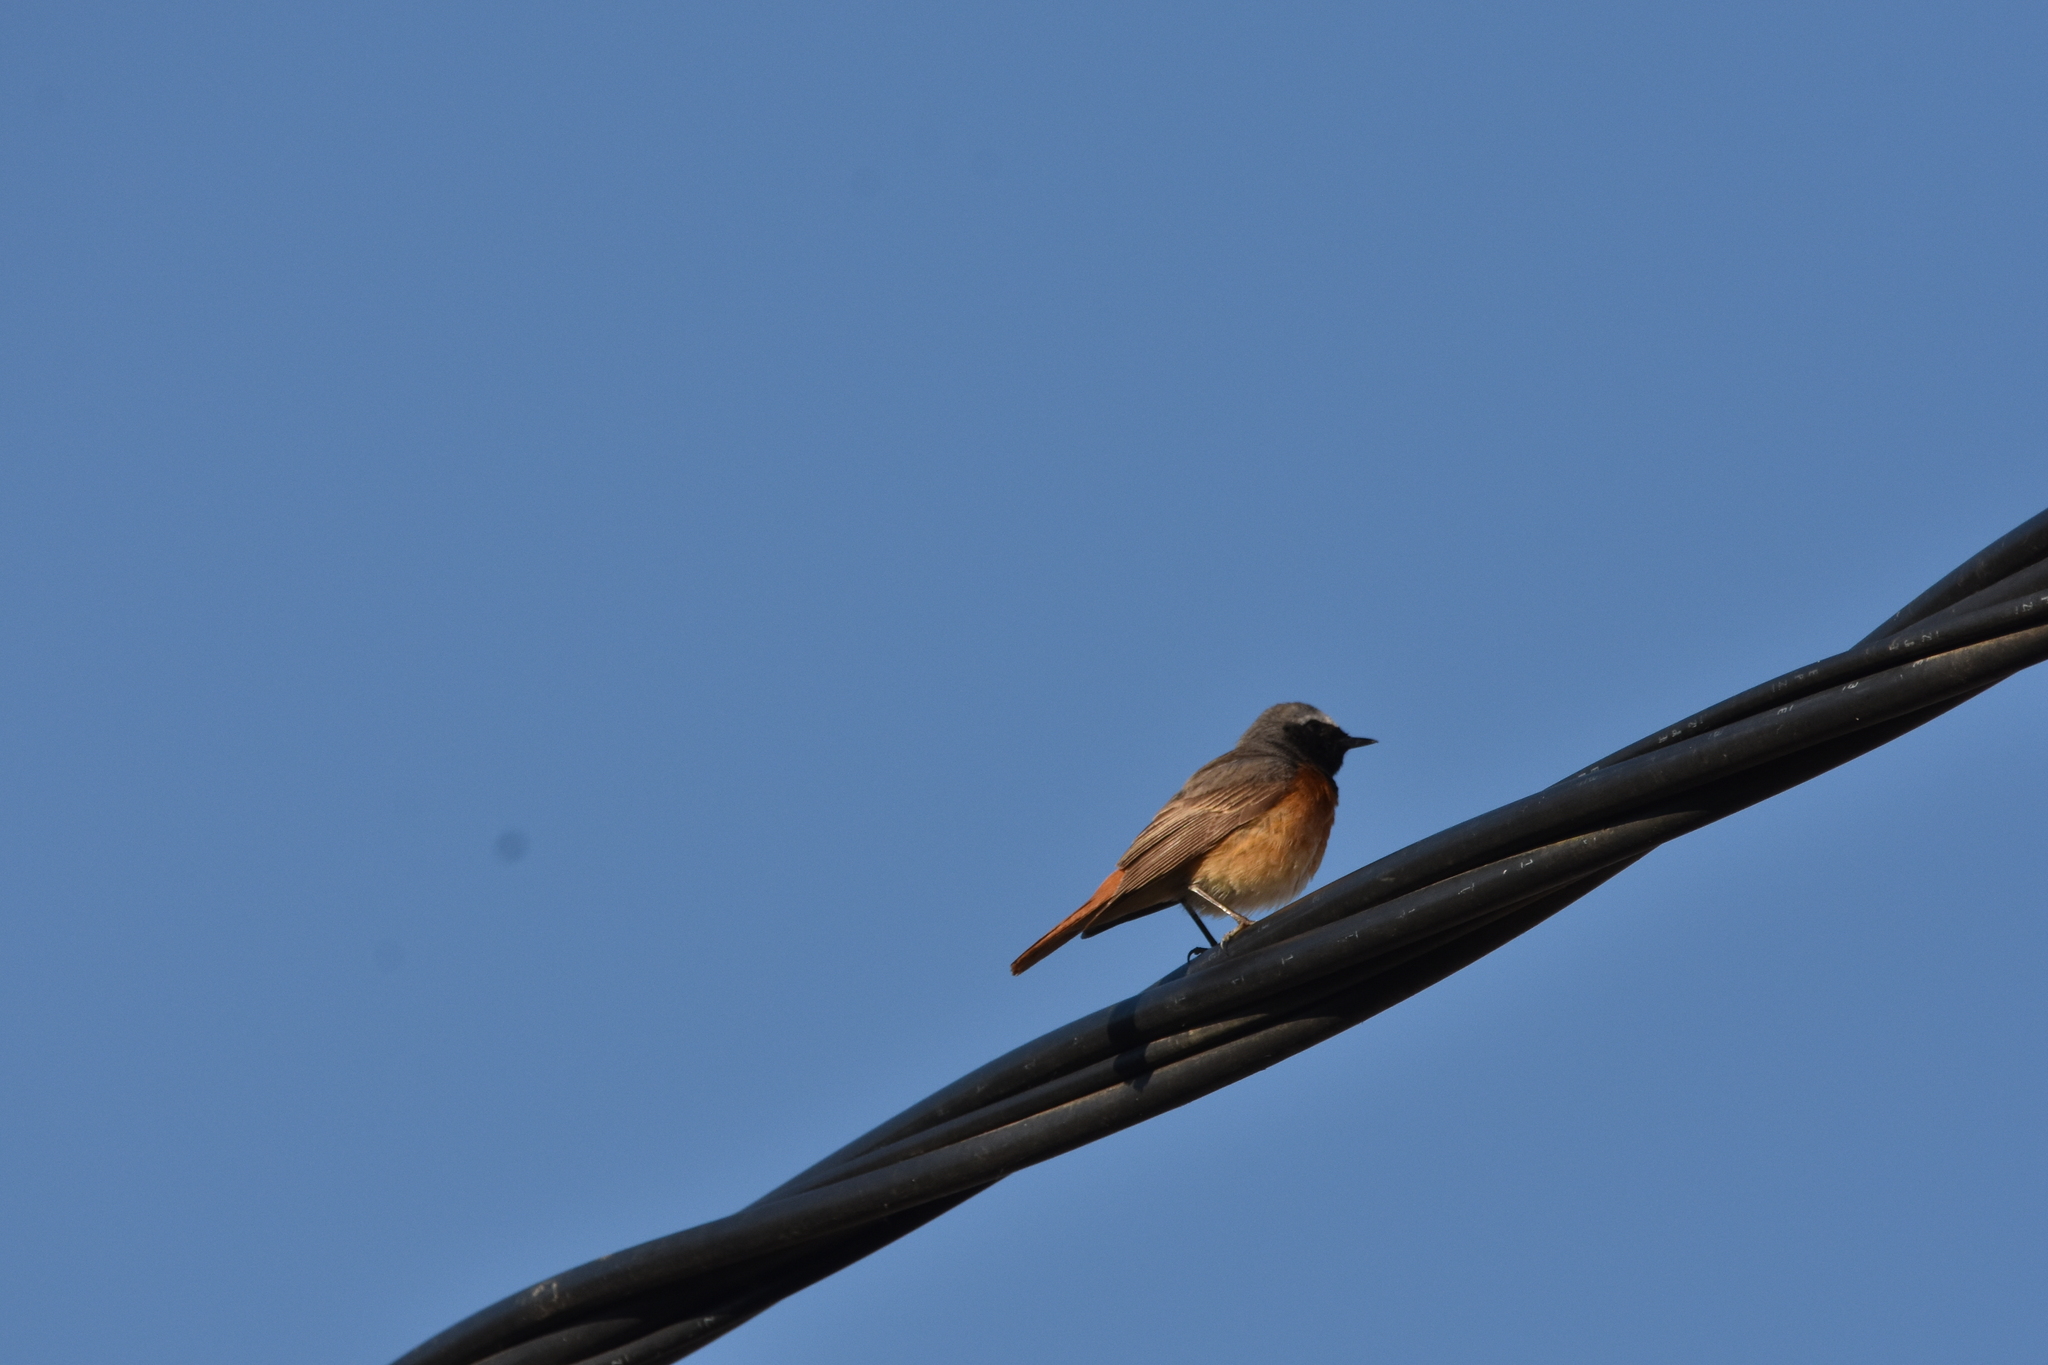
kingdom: Animalia
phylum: Chordata
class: Aves
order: Passeriformes
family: Muscicapidae
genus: Phoenicurus
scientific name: Phoenicurus phoenicurus
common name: Common redstart
